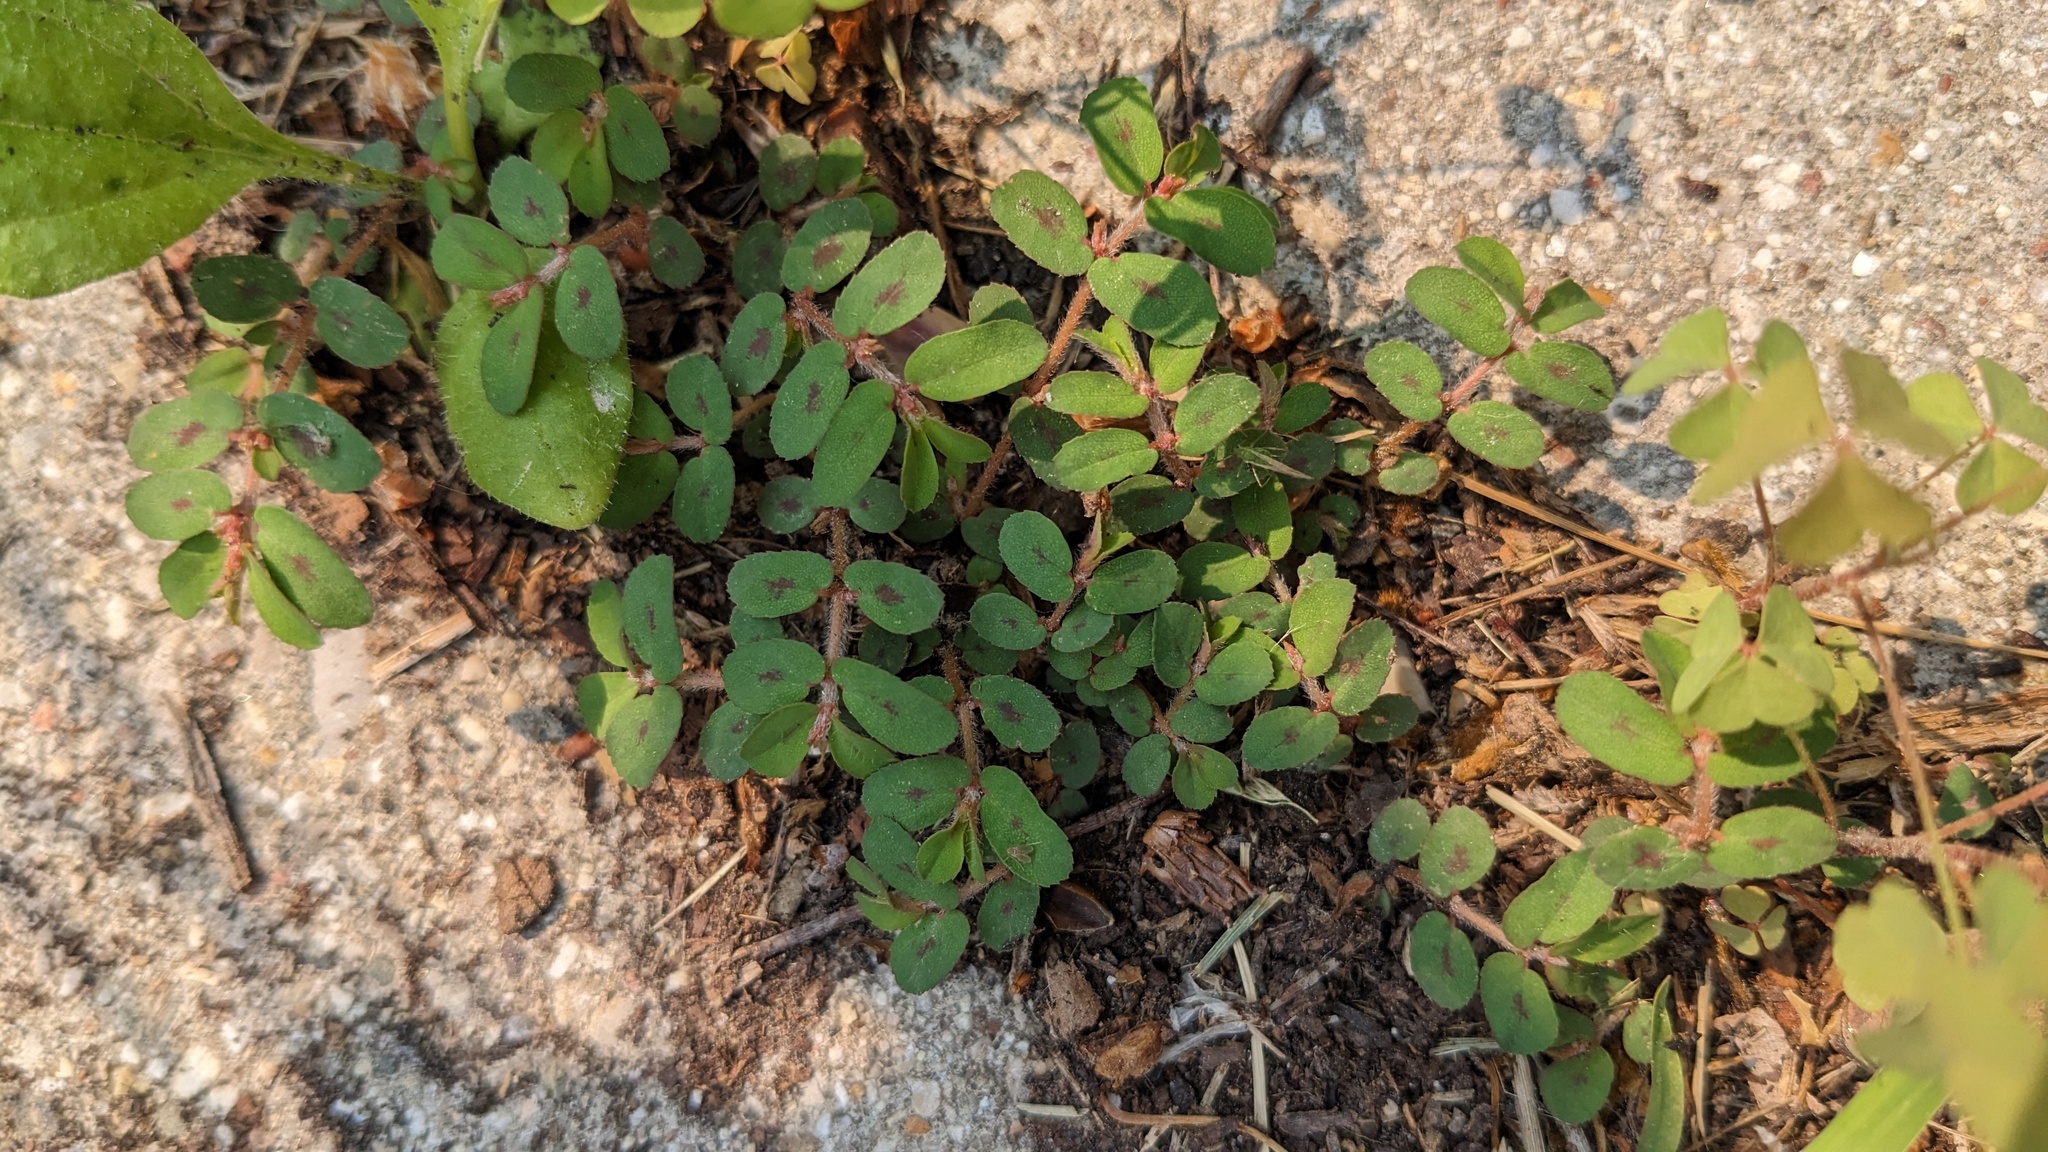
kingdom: Plantae
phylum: Tracheophyta
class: Magnoliopsida
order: Malpighiales
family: Euphorbiaceae
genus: Euphorbia
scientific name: Euphorbia maculata
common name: Spotted spurge
